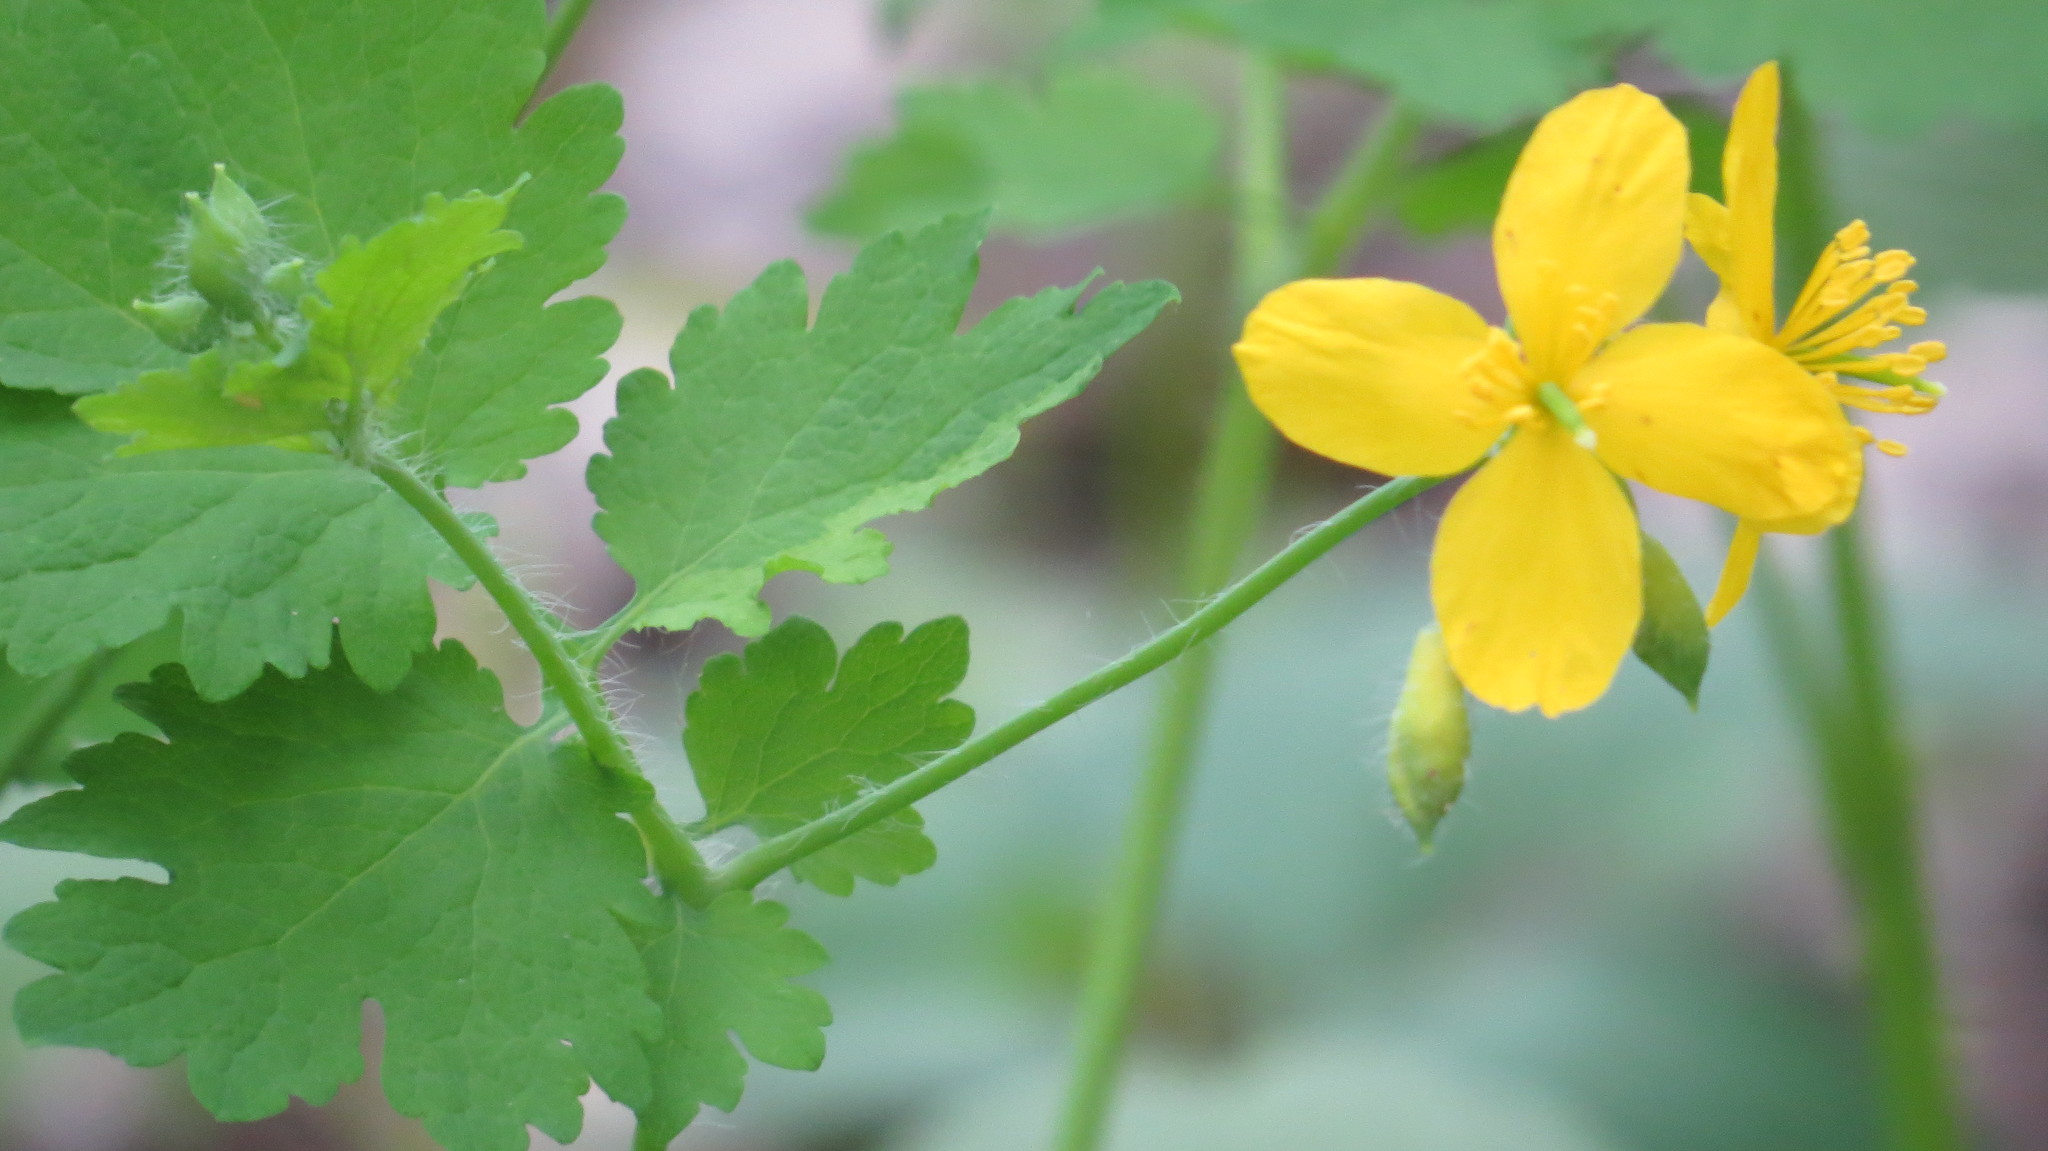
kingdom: Plantae
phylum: Tracheophyta
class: Magnoliopsida
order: Ranunculales
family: Papaveraceae
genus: Chelidonium
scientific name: Chelidonium majus
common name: Greater celandine
